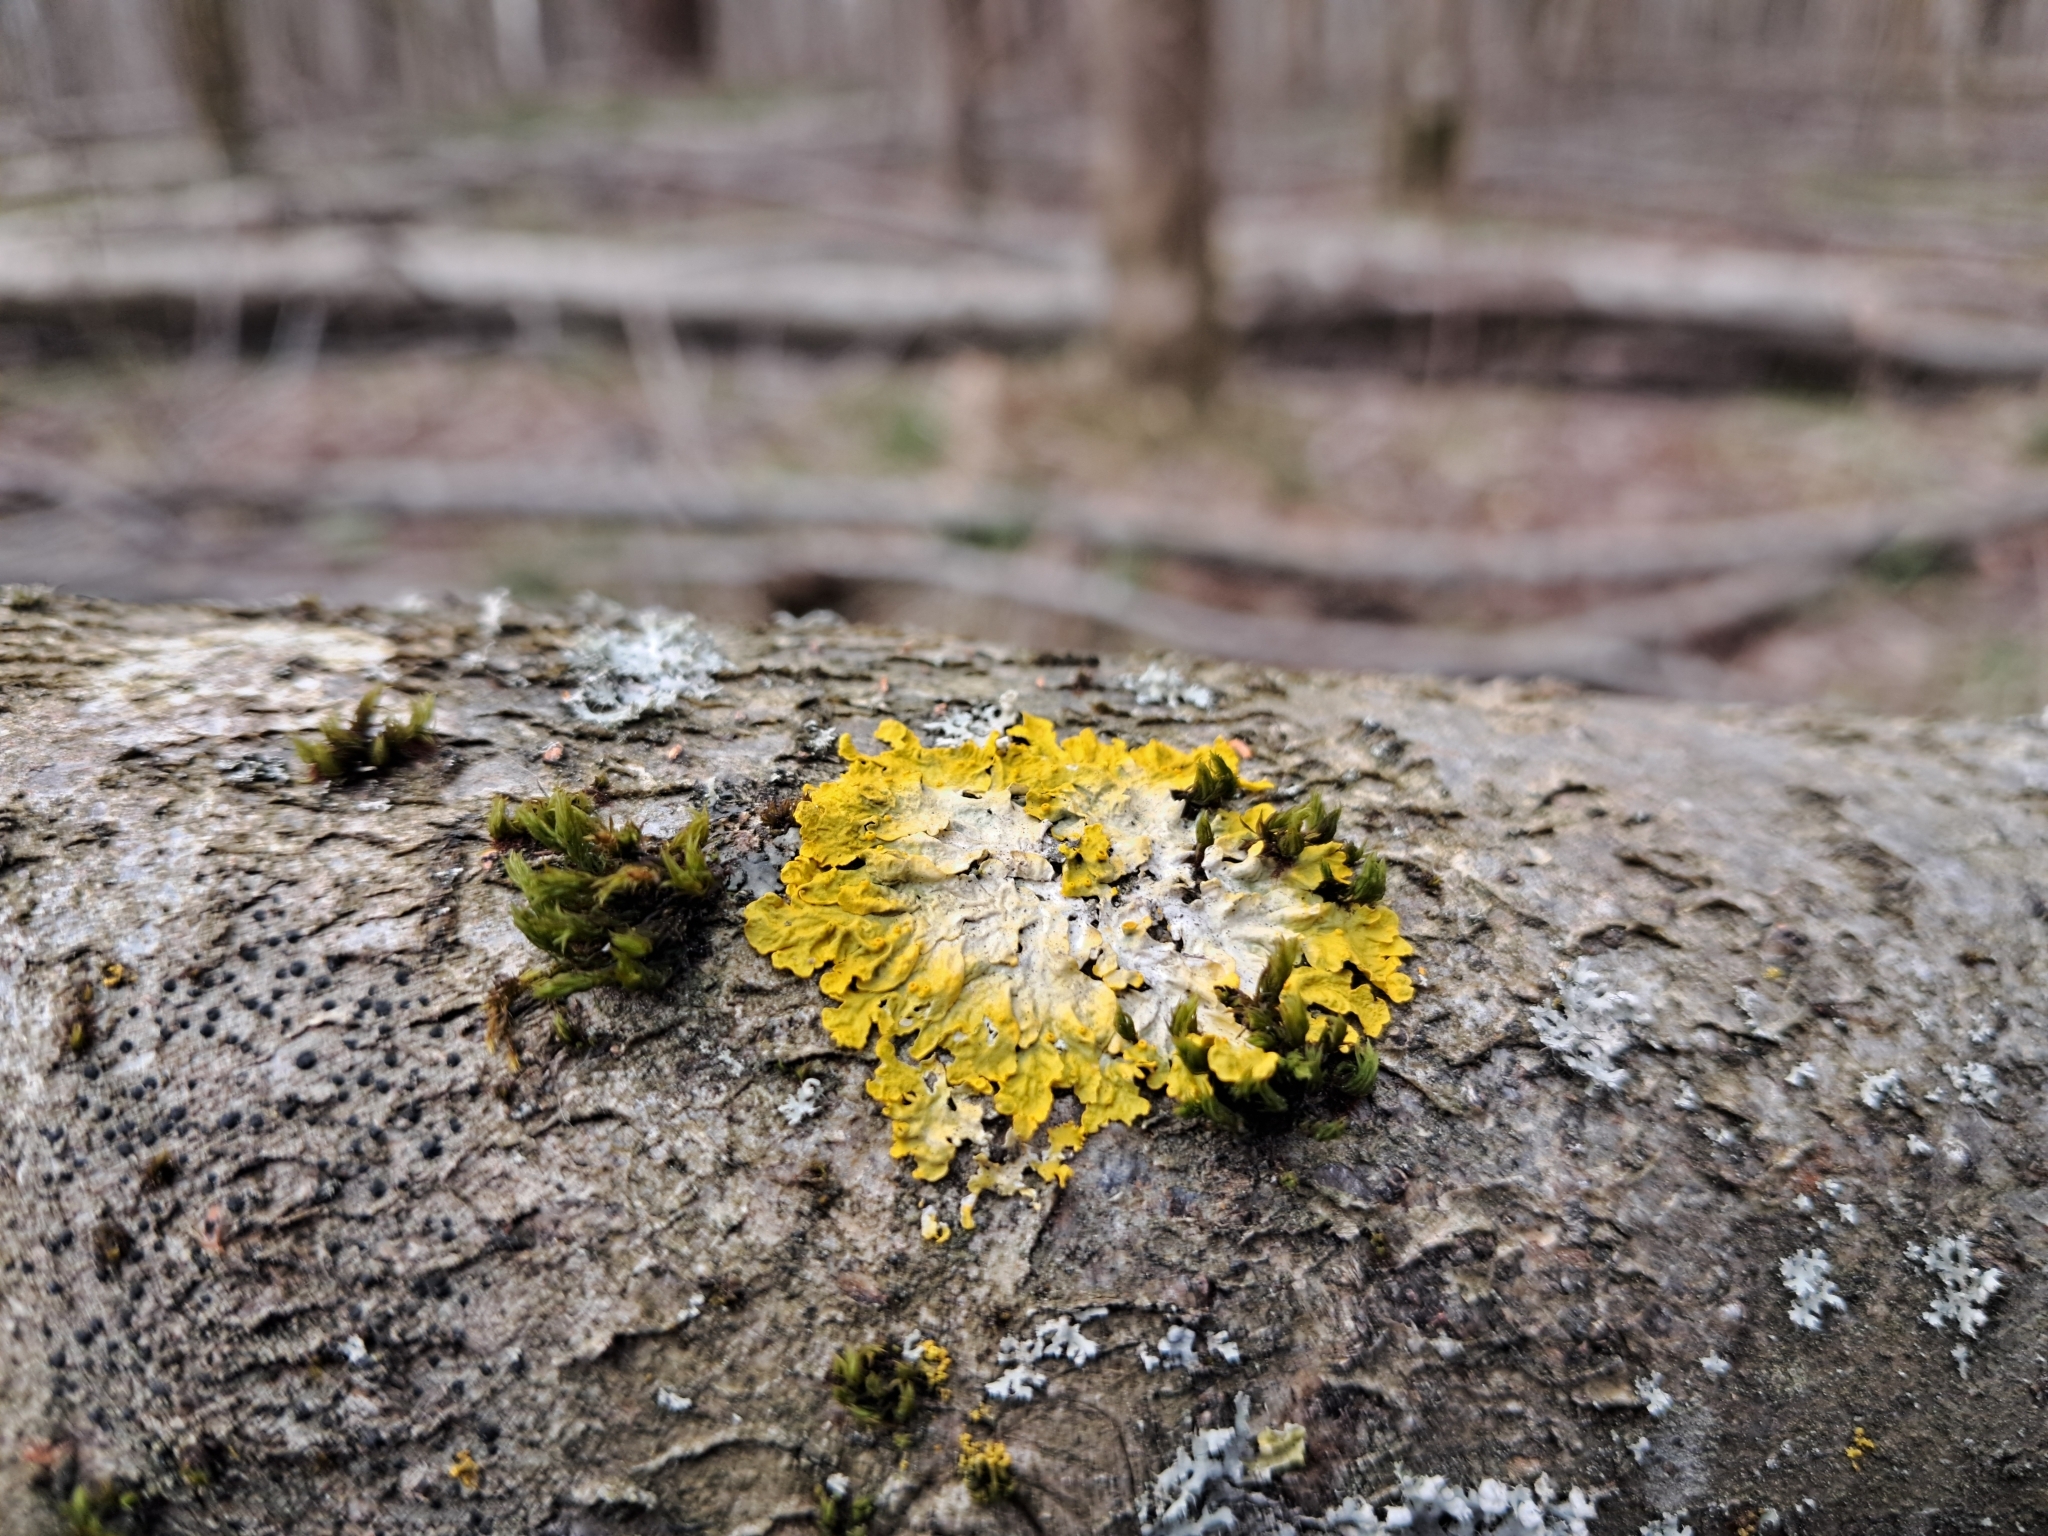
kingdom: Fungi
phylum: Ascomycota
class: Lecanoromycetes
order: Teloschistales
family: Teloschistaceae
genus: Xanthoria
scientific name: Xanthoria parietina
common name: Common orange lichen
